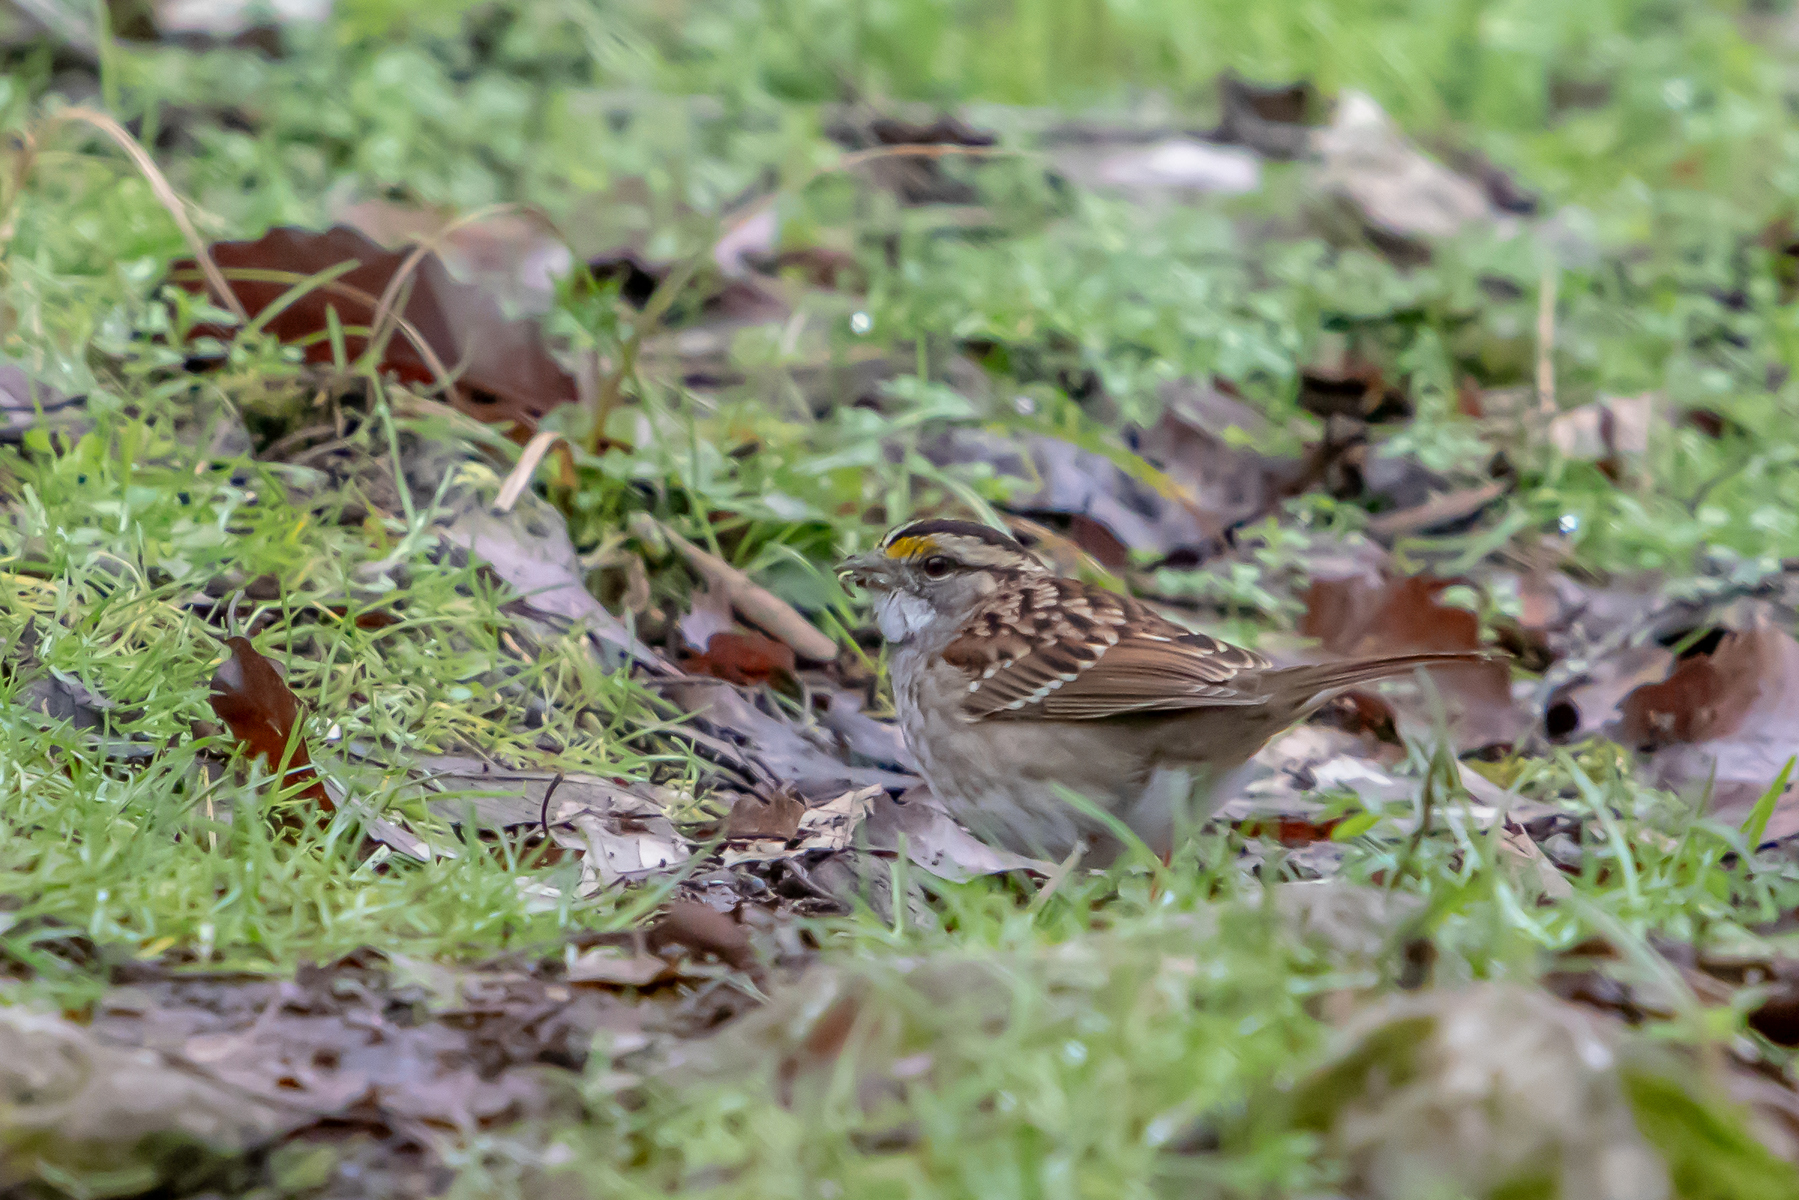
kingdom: Animalia
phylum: Chordata
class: Aves
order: Passeriformes
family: Passerellidae
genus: Zonotrichia
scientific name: Zonotrichia albicollis
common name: White-throated sparrow
